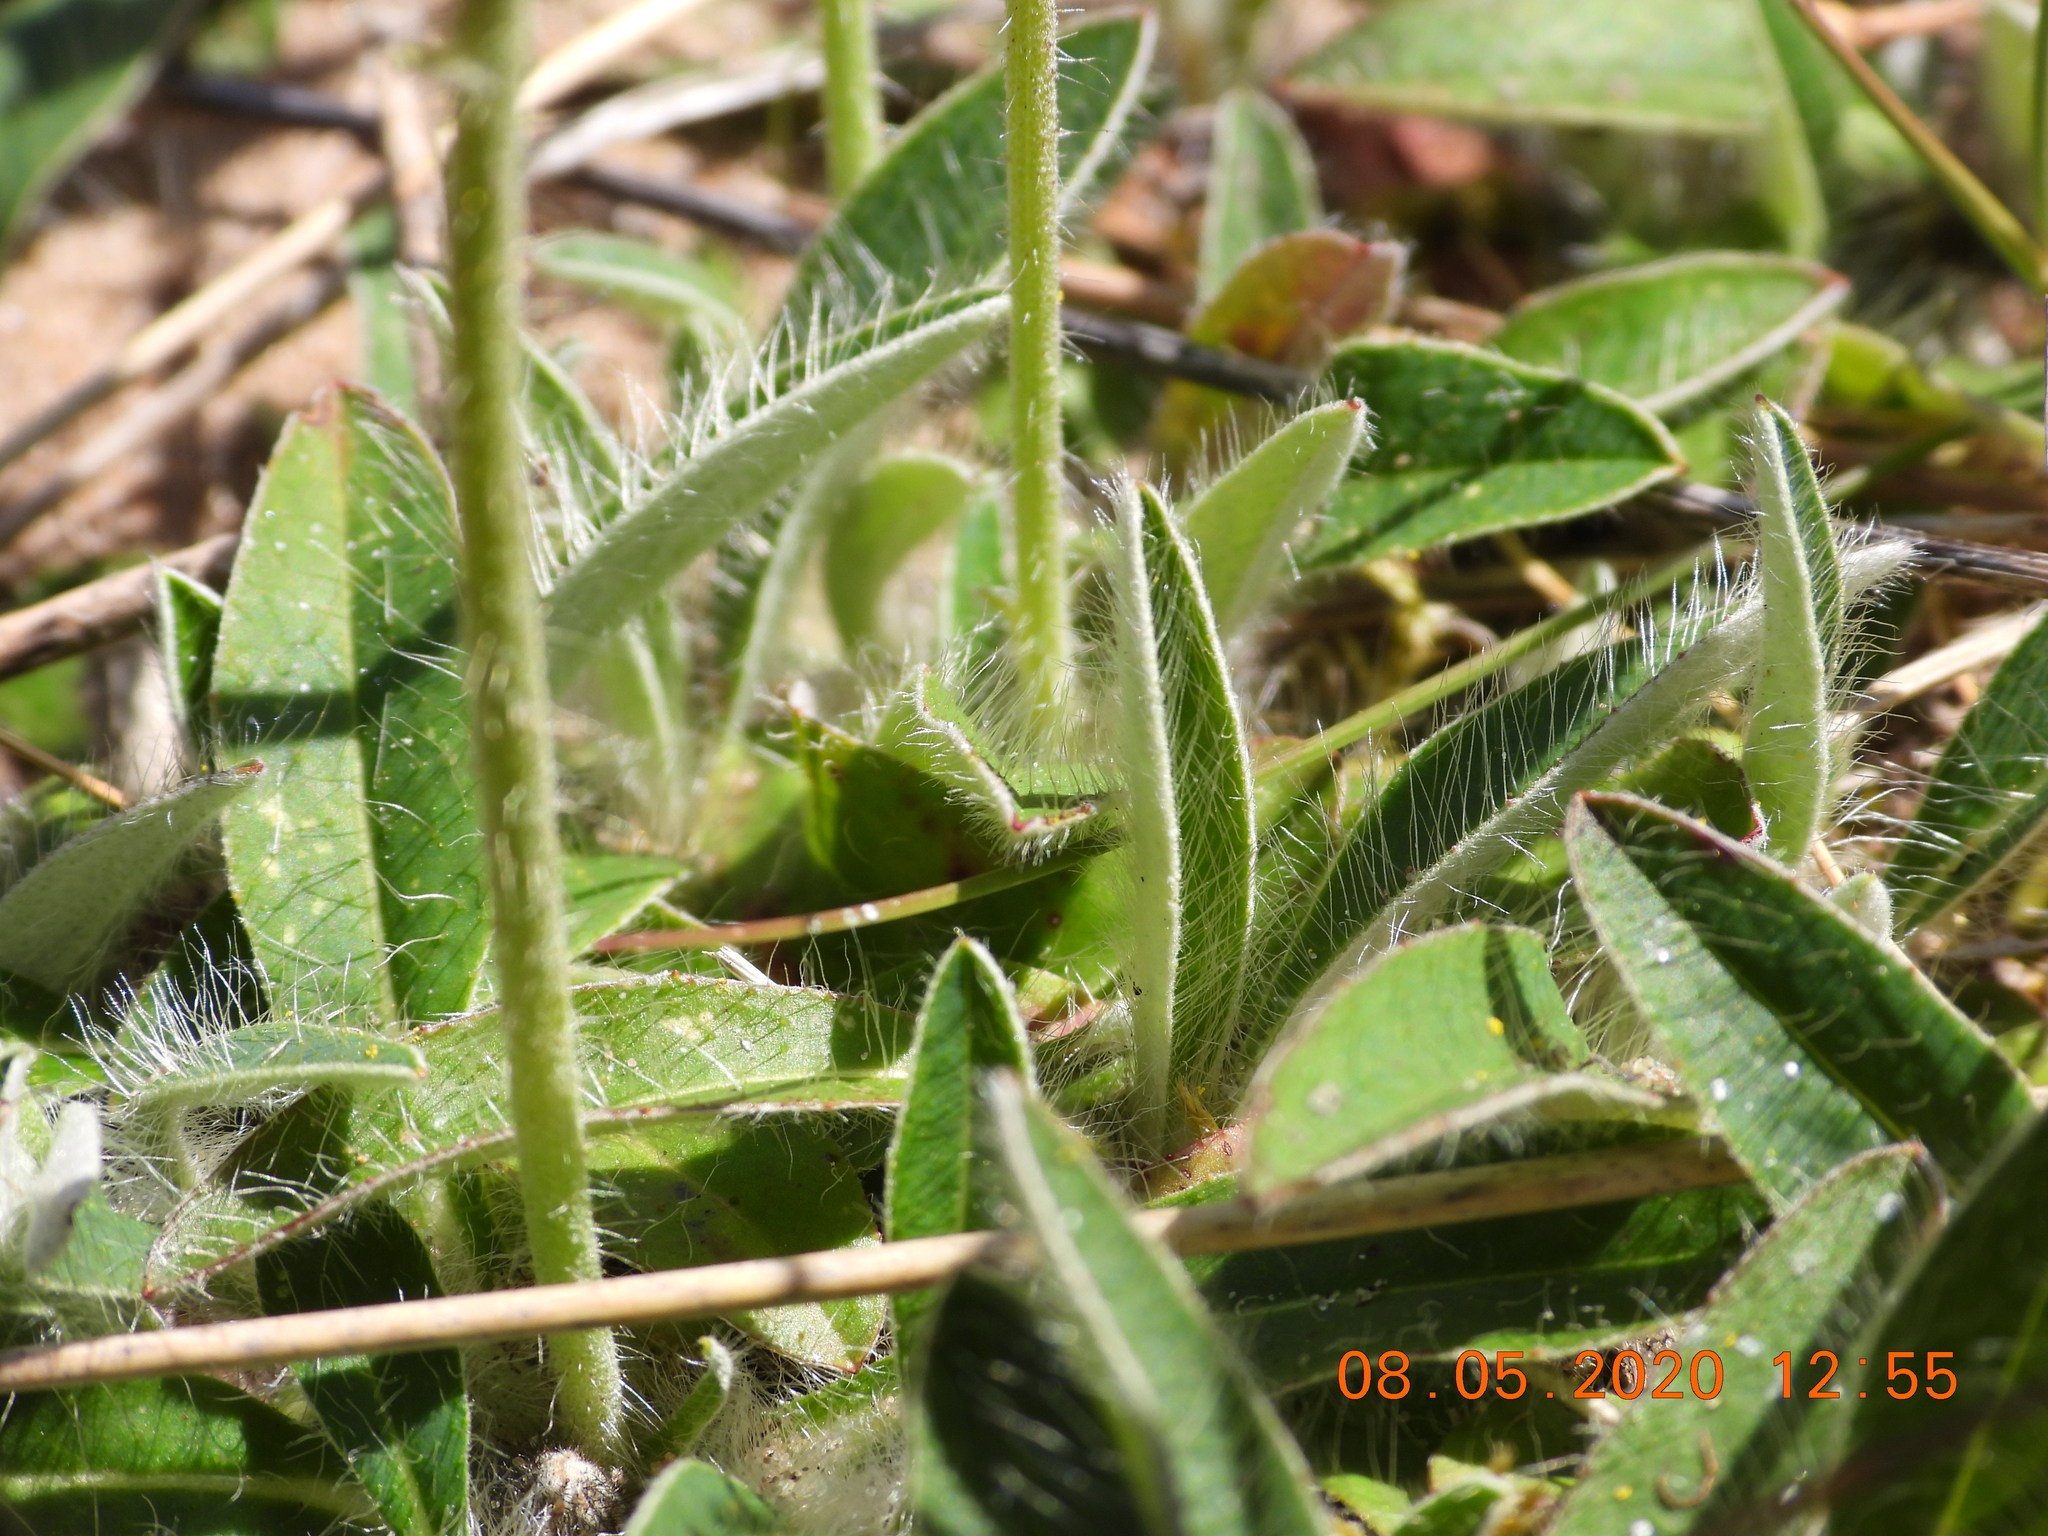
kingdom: Plantae
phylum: Tracheophyta
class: Magnoliopsida
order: Asterales
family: Asteraceae
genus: Pilosella
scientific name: Pilosella officinarum
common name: Mouse-ear hawkweed
